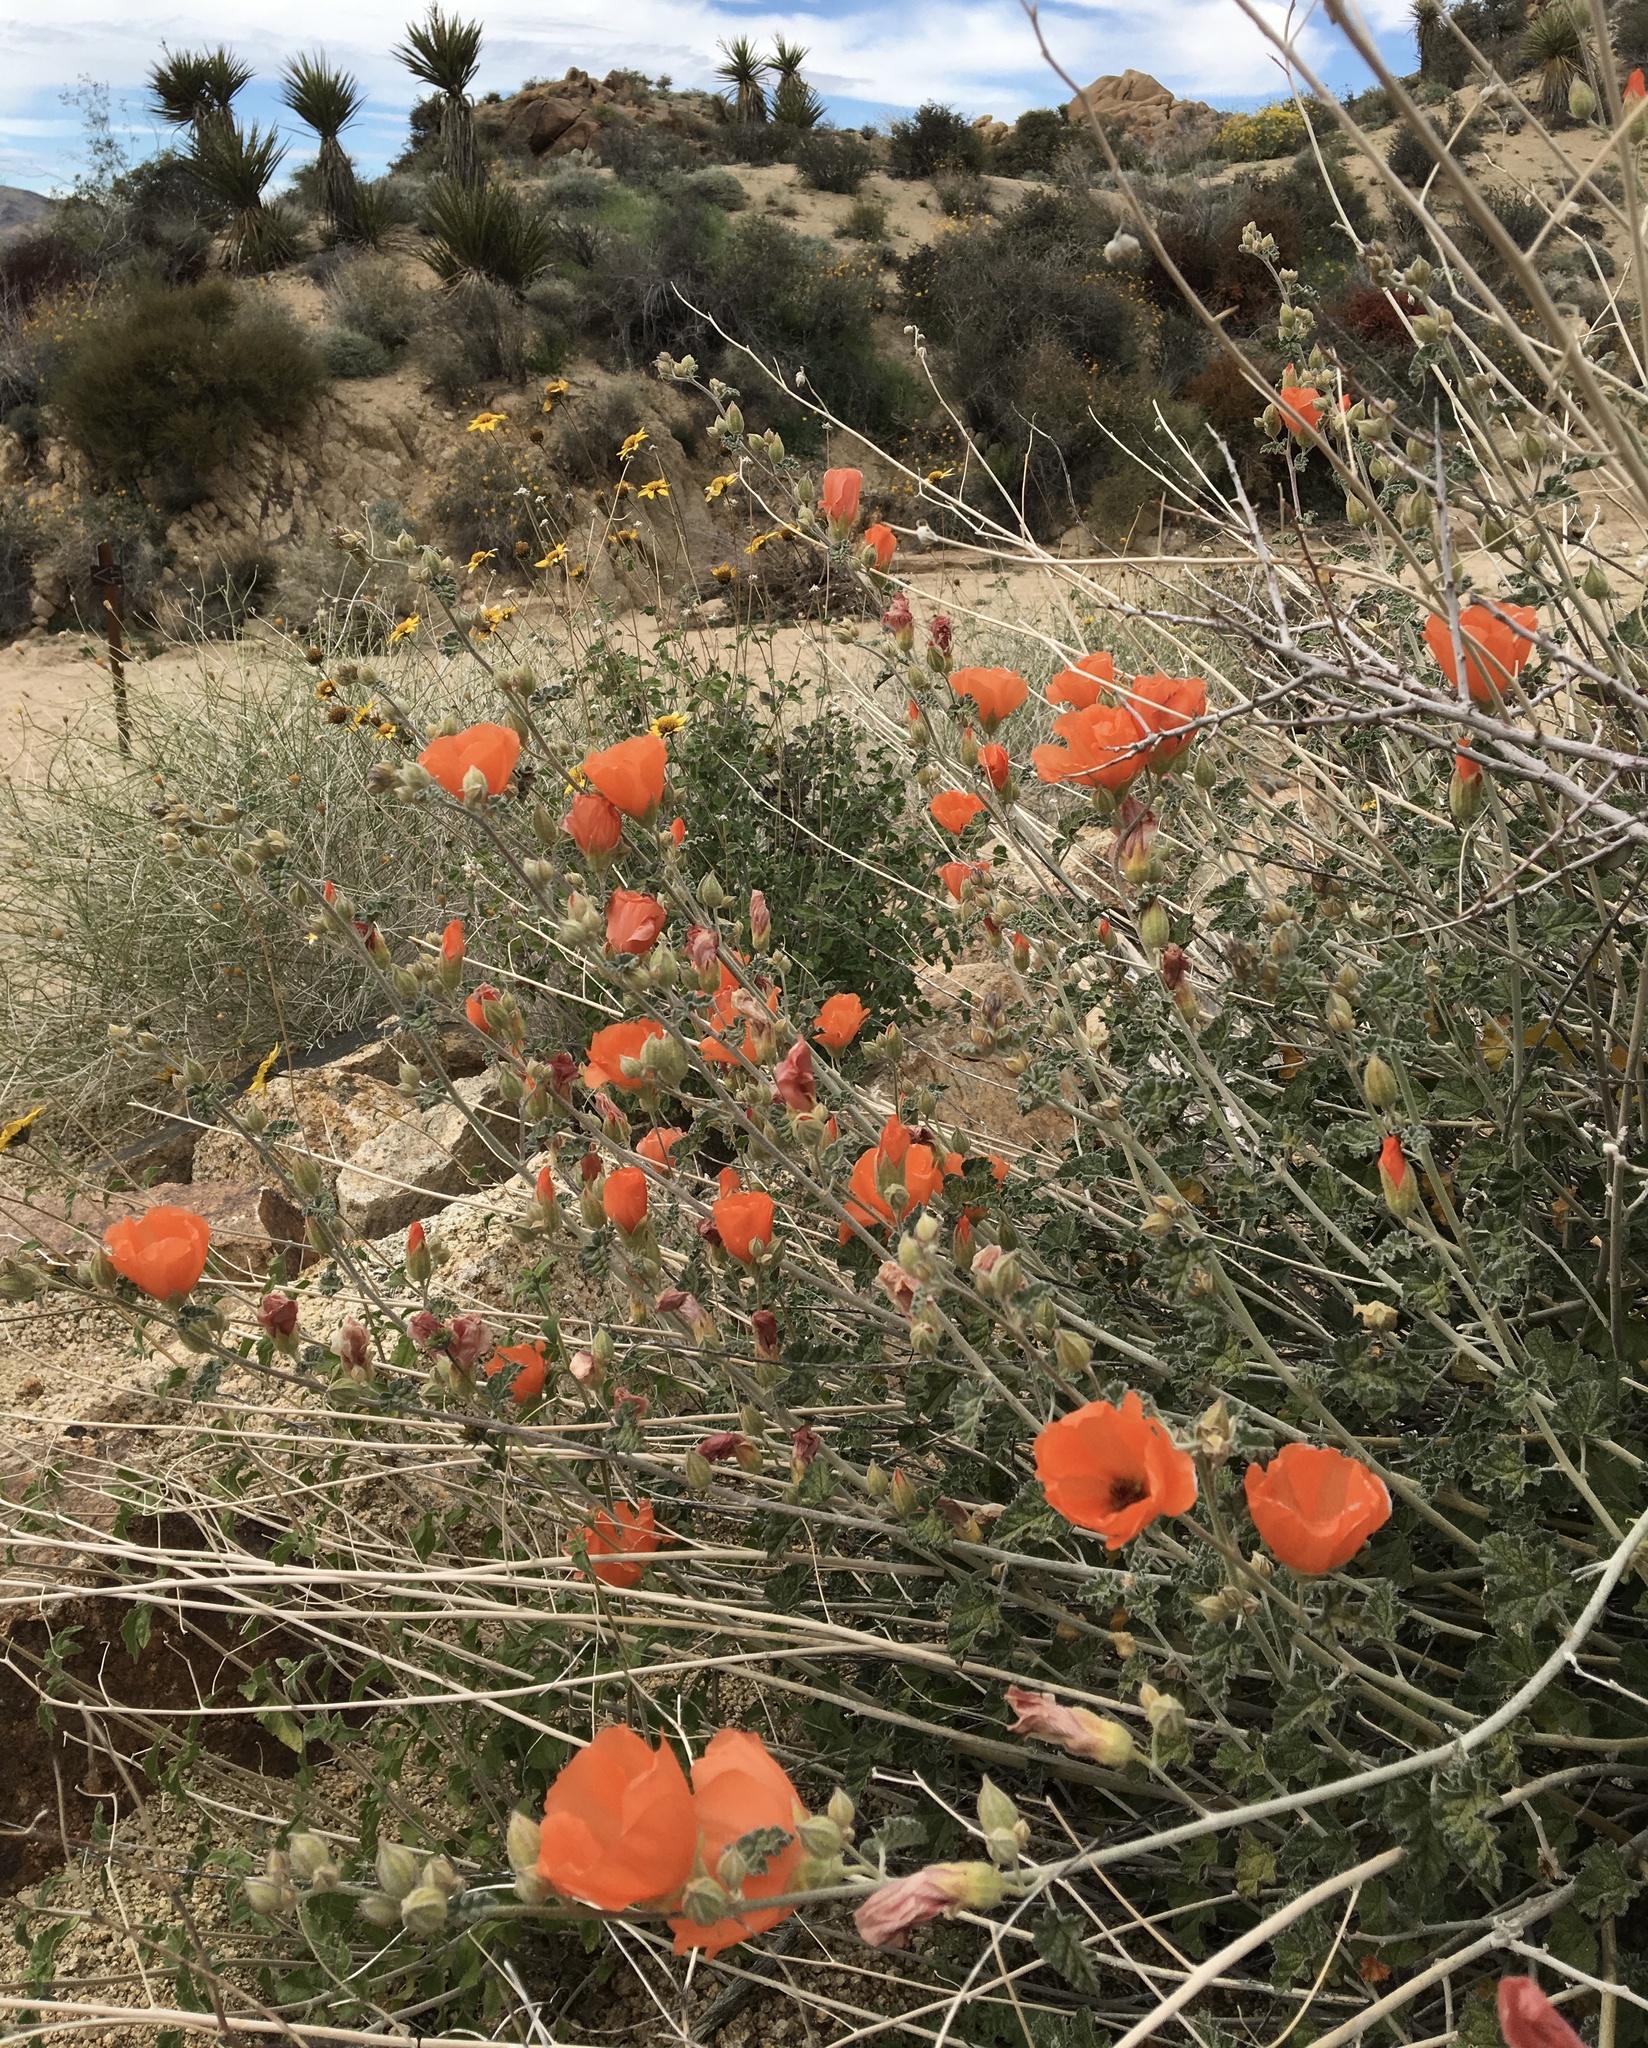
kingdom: Plantae
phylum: Tracheophyta
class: Magnoliopsida
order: Malvales
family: Malvaceae
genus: Sphaeralcea
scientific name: Sphaeralcea ambigua
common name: Apricot globe-mallow
